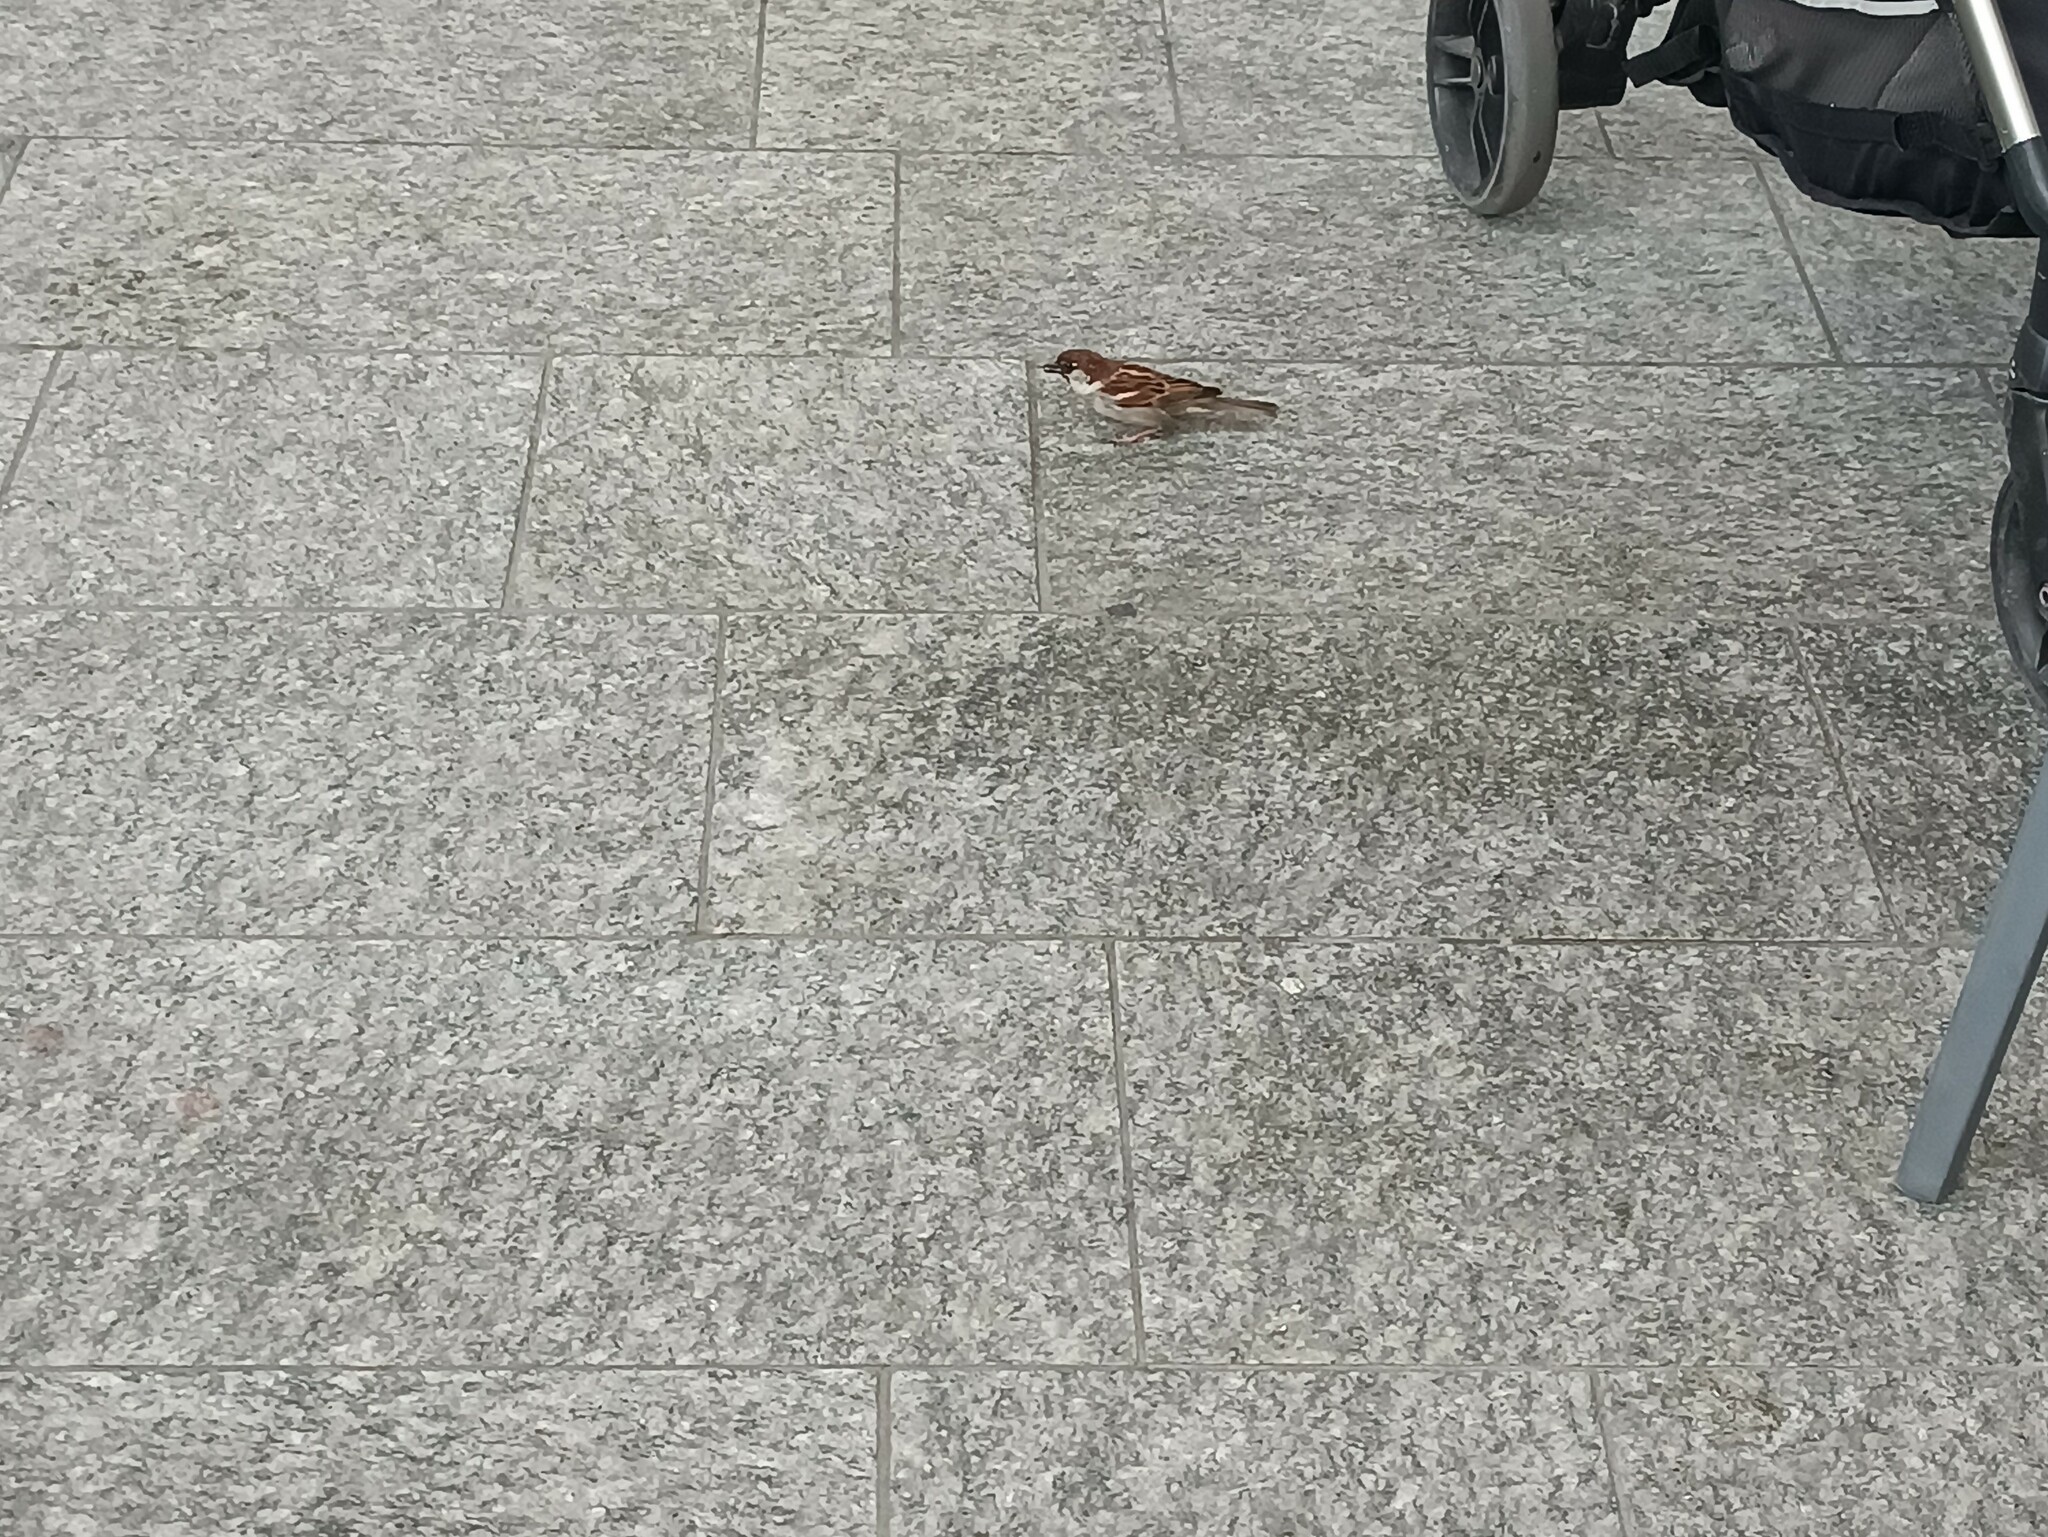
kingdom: Animalia
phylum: Chordata
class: Aves
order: Passeriformes
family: Passeridae
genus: Passer
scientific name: Passer italiae
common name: Italian sparrow
